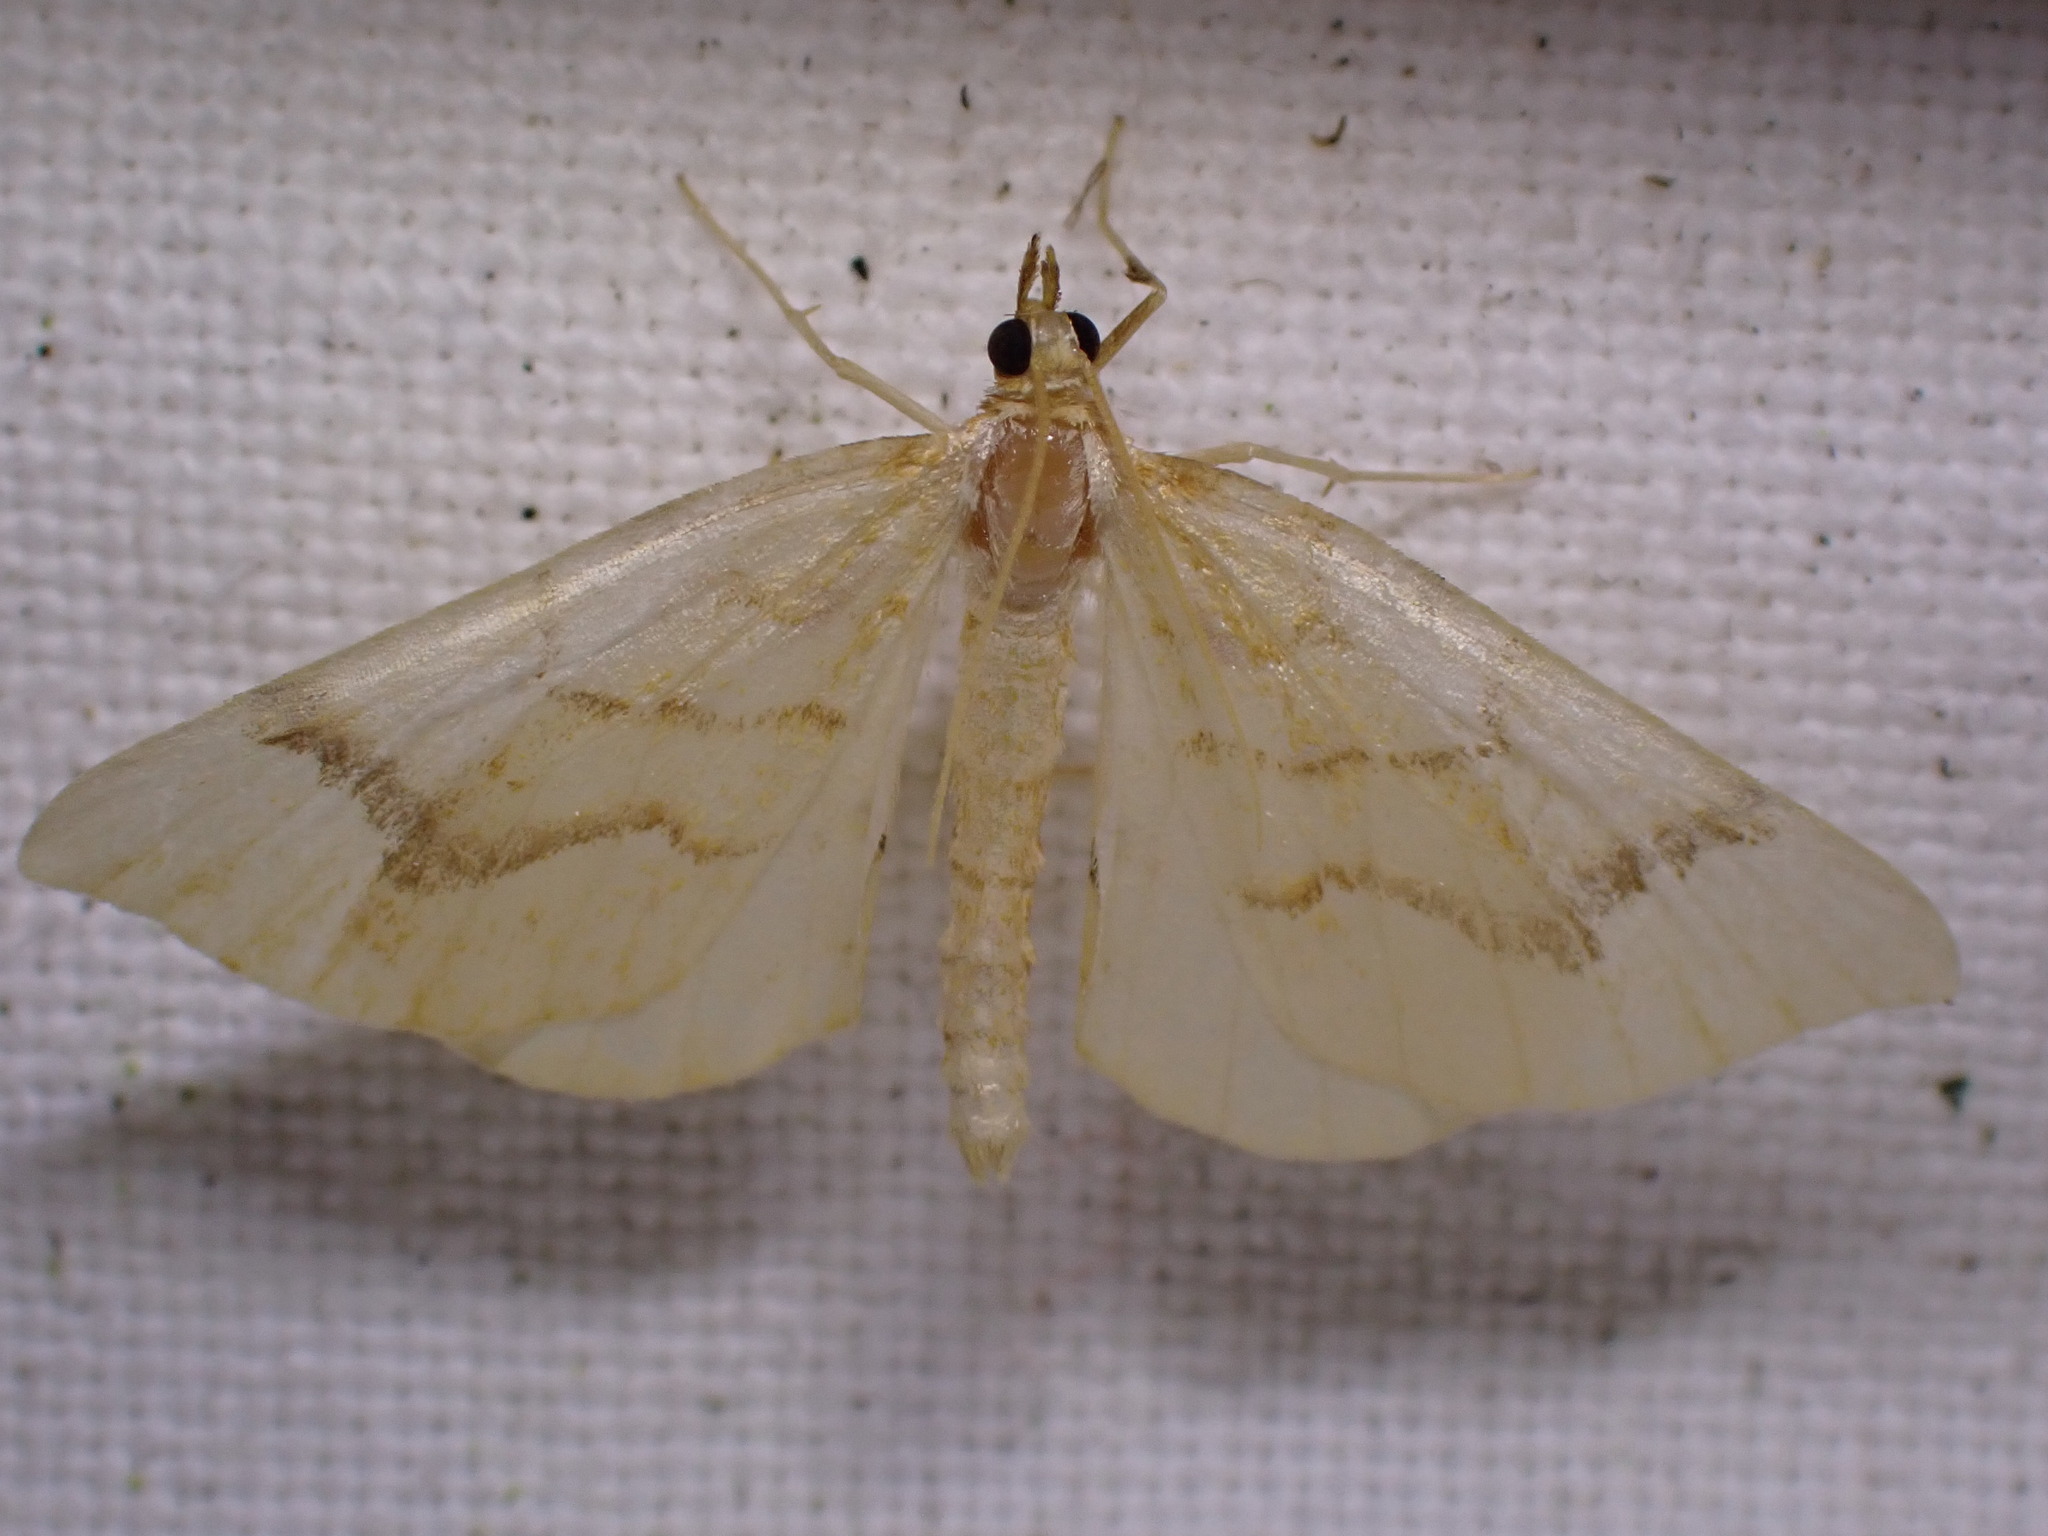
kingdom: Animalia
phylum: Arthropoda
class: Insecta
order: Lepidoptera
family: Geometridae
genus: Eulithis
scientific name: Eulithis mellinata
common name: Spinach
